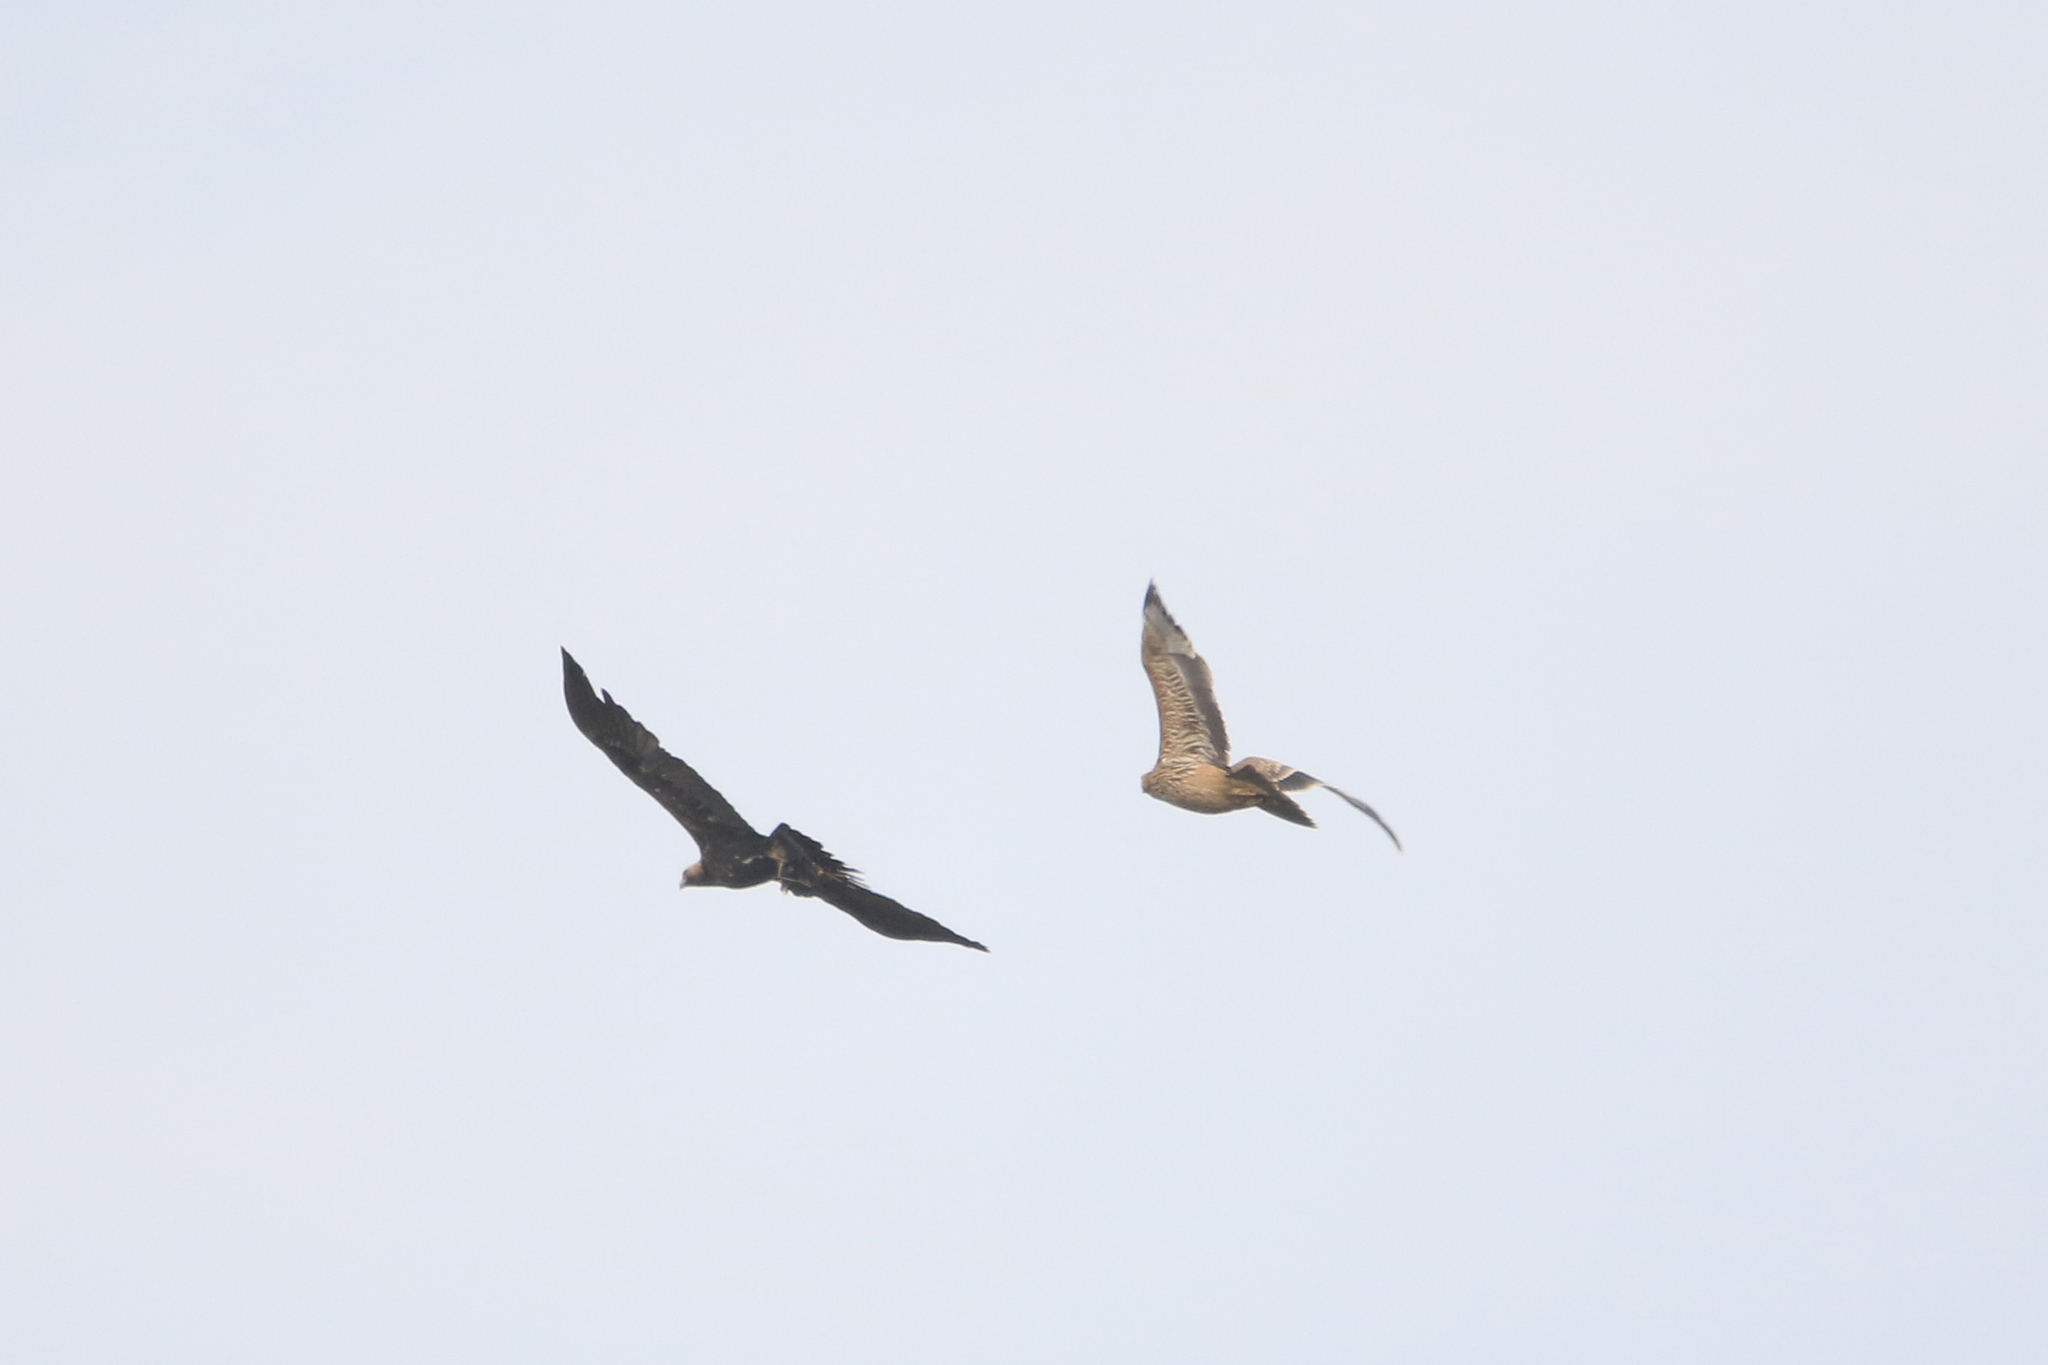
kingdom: Animalia
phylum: Chordata
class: Aves
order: Accipitriformes
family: Accipitridae
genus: Aquila
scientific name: Aquila heliaca
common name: Eastern imperial eagle
